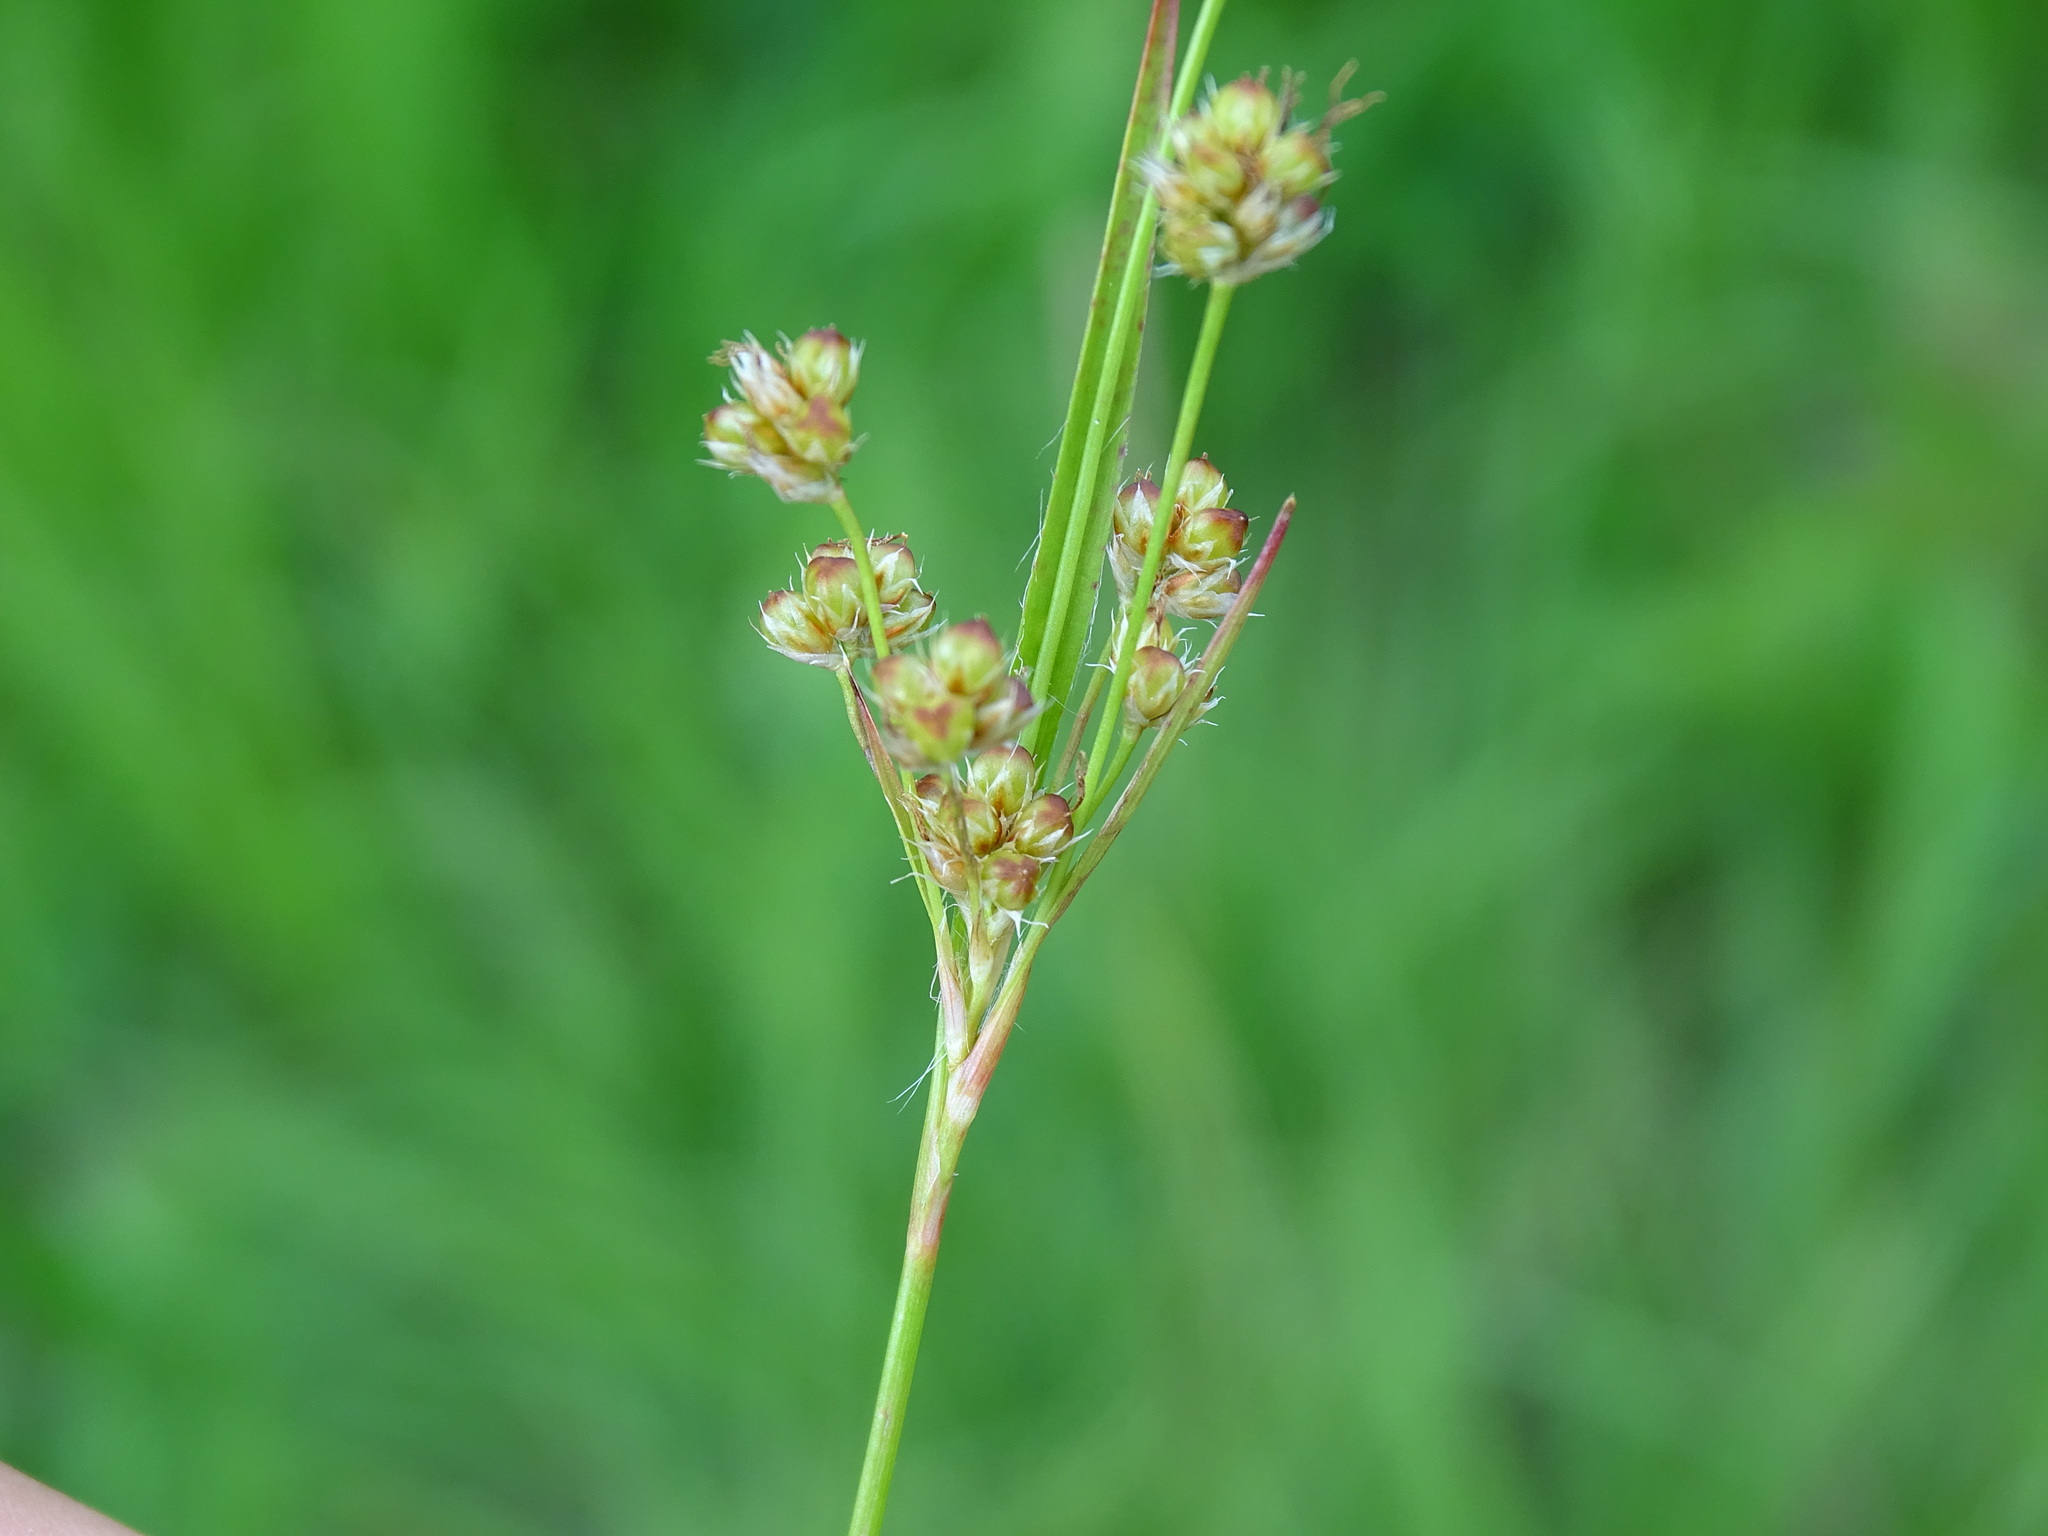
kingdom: Plantae
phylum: Tracheophyta
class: Liliopsida
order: Poales
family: Juncaceae
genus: Luzula
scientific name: Luzula multiflora
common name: Heath wood-rush
